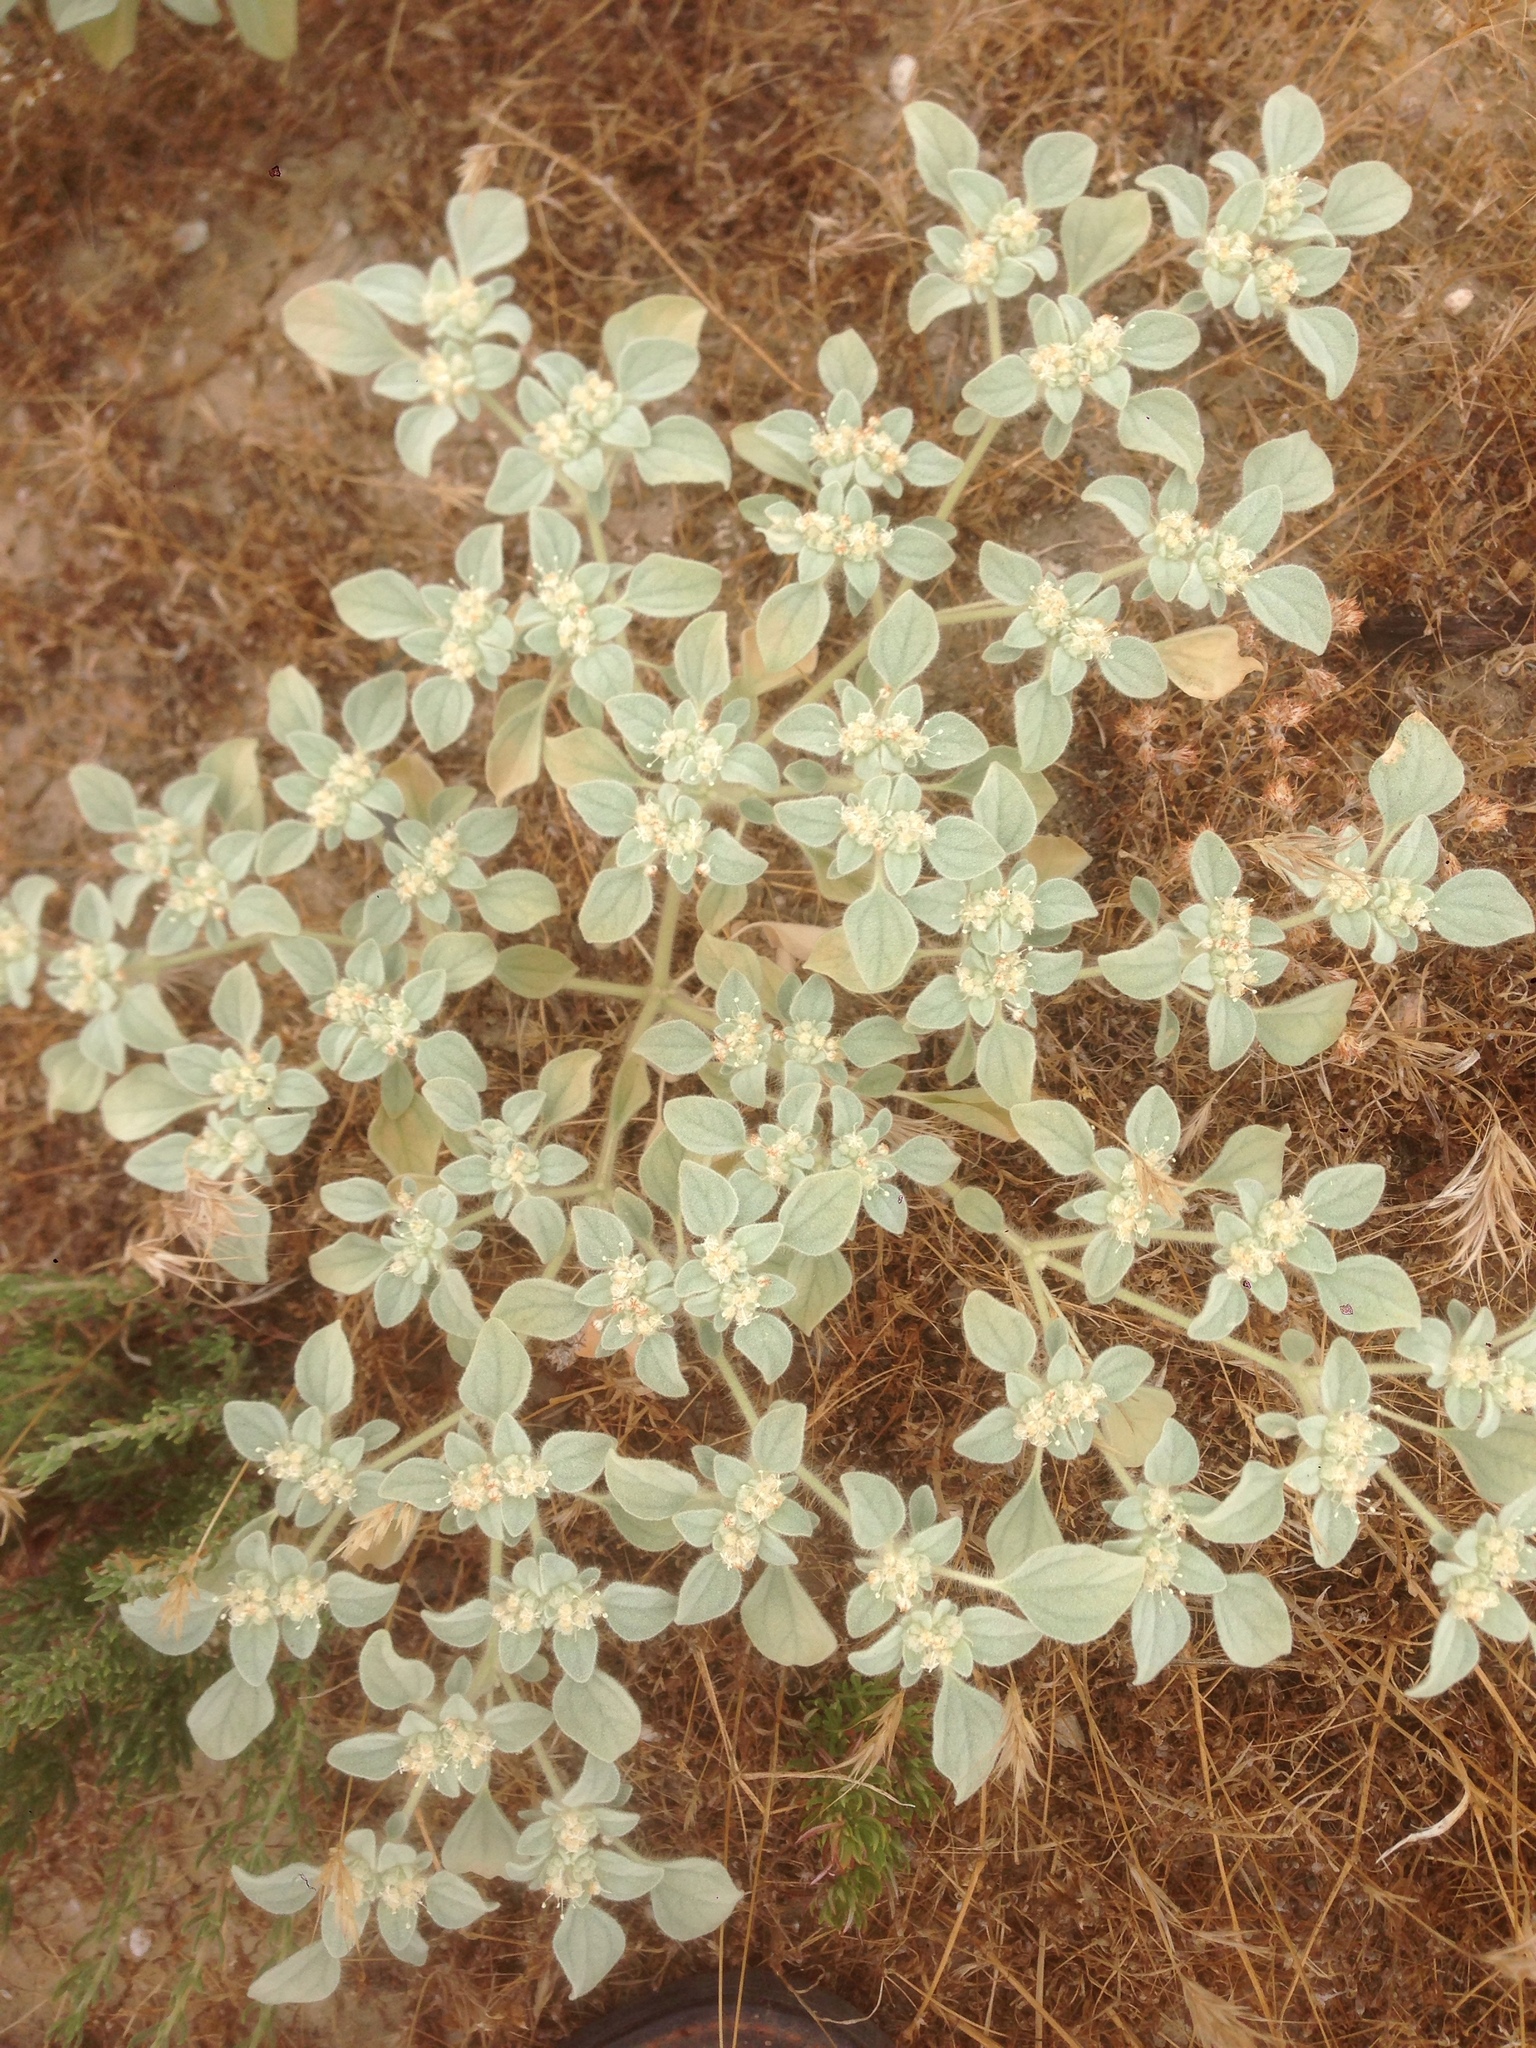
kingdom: Plantae
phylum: Tracheophyta
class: Magnoliopsida
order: Malpighiales
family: Euphorbiaceae
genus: Croton
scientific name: Croton setiger
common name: Dove weed
